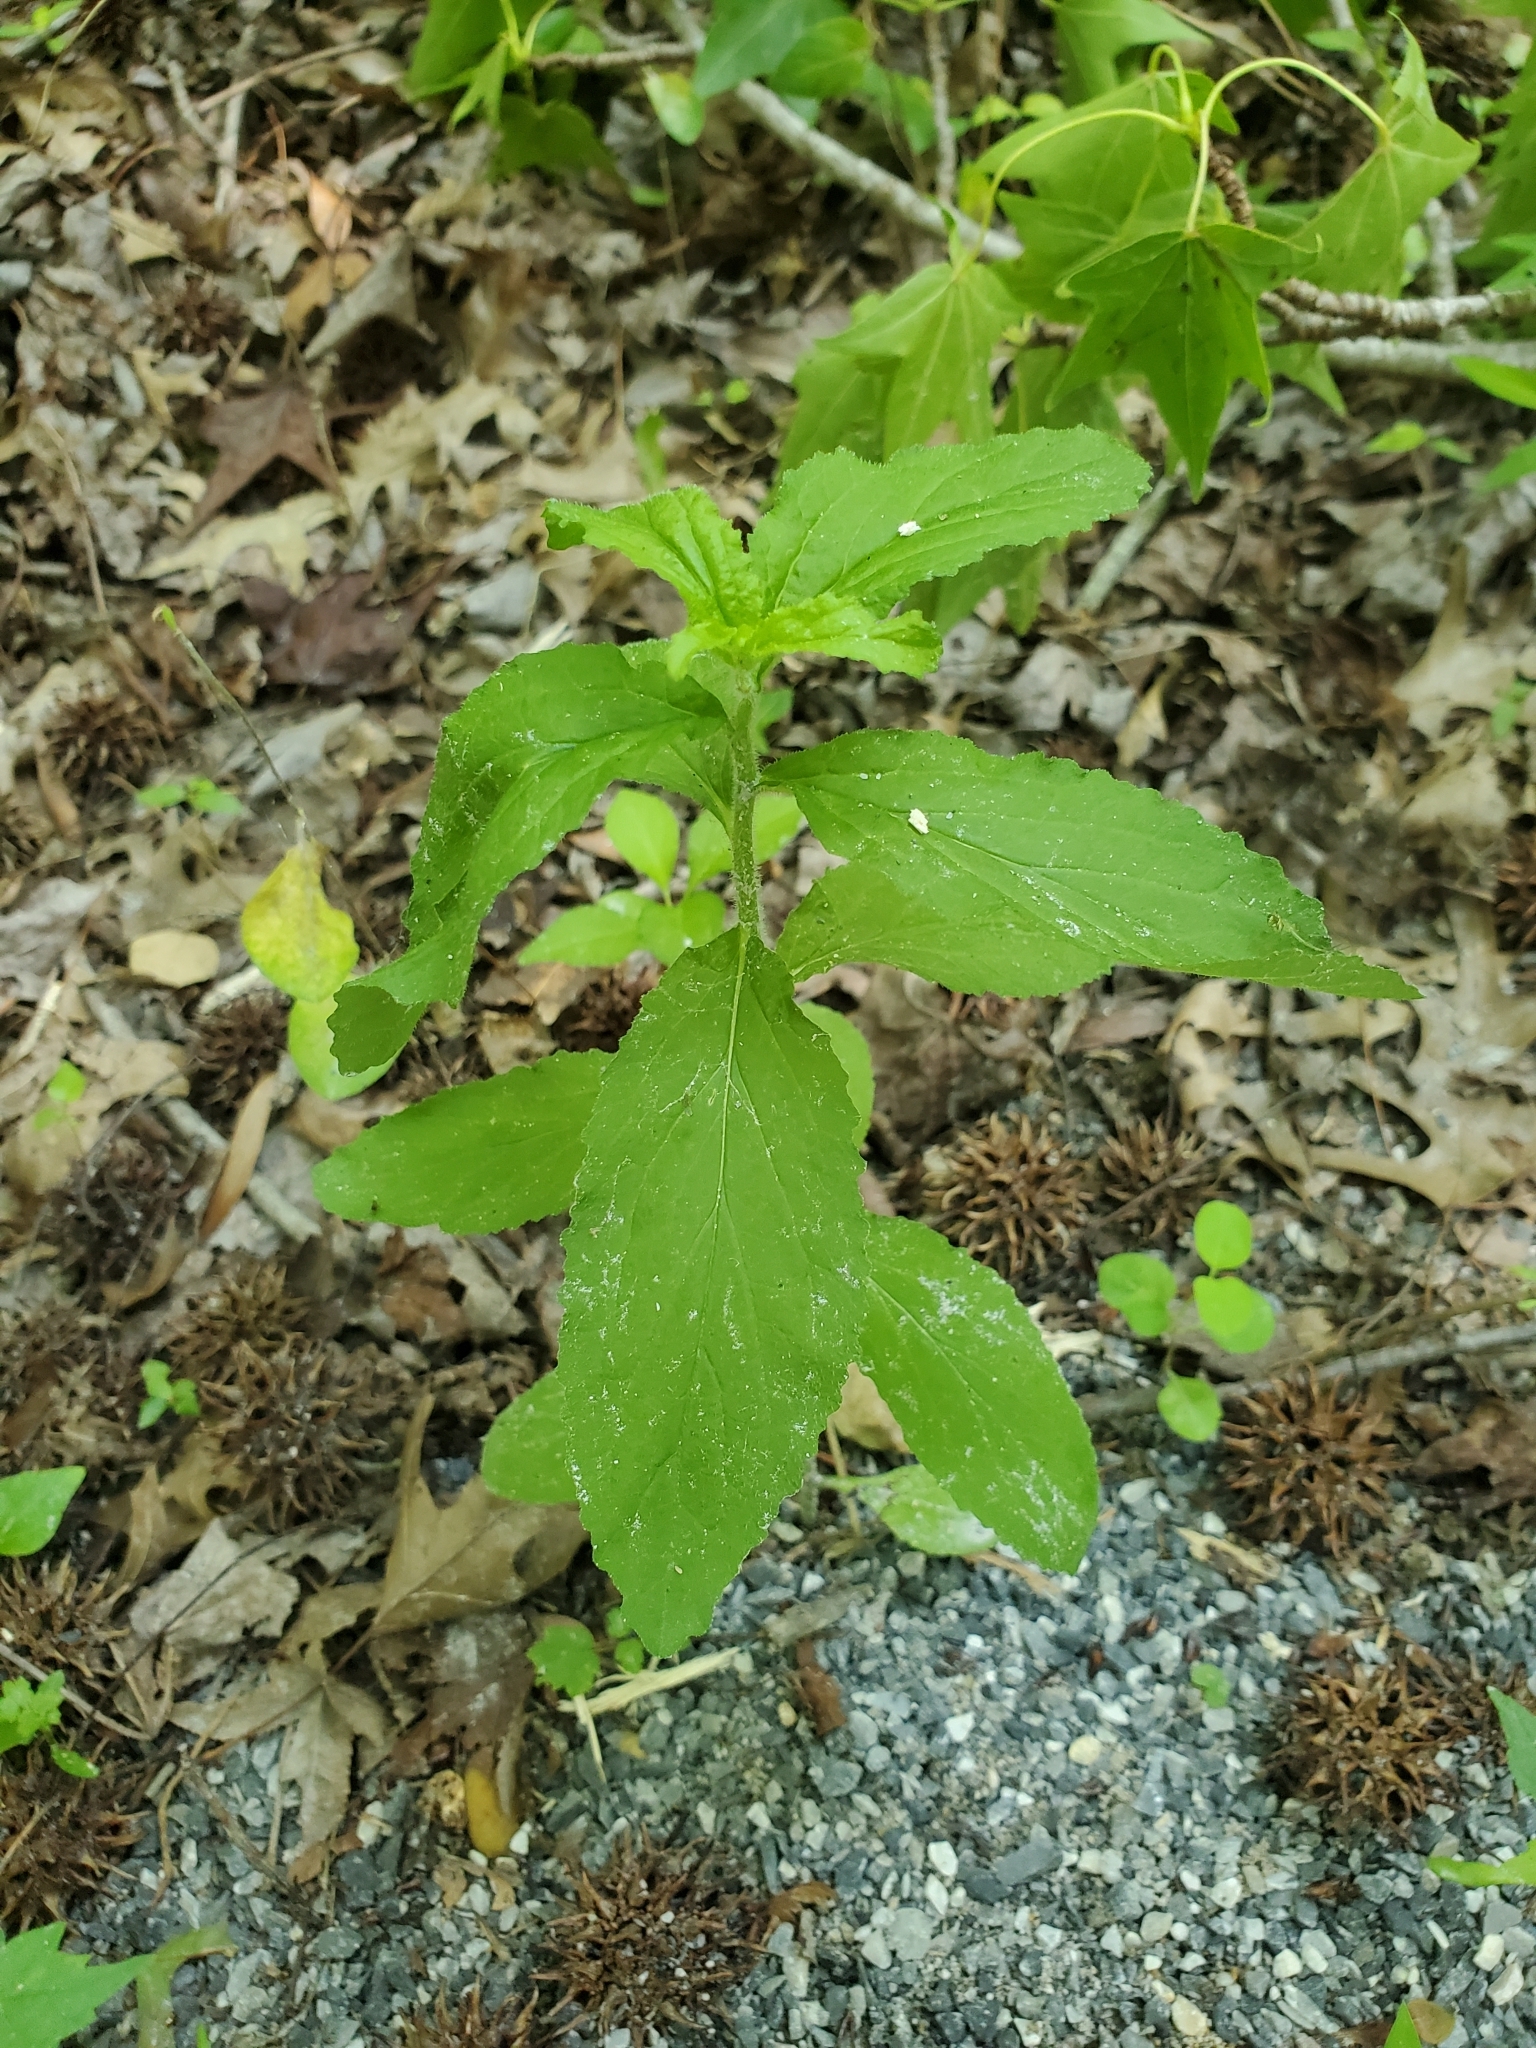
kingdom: Plantae
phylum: Tracheophyta
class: Magnoliopsida
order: Asterales
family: Campanulaceae
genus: Lobelia
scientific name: Lobelia inflata
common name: Indian tobacco
